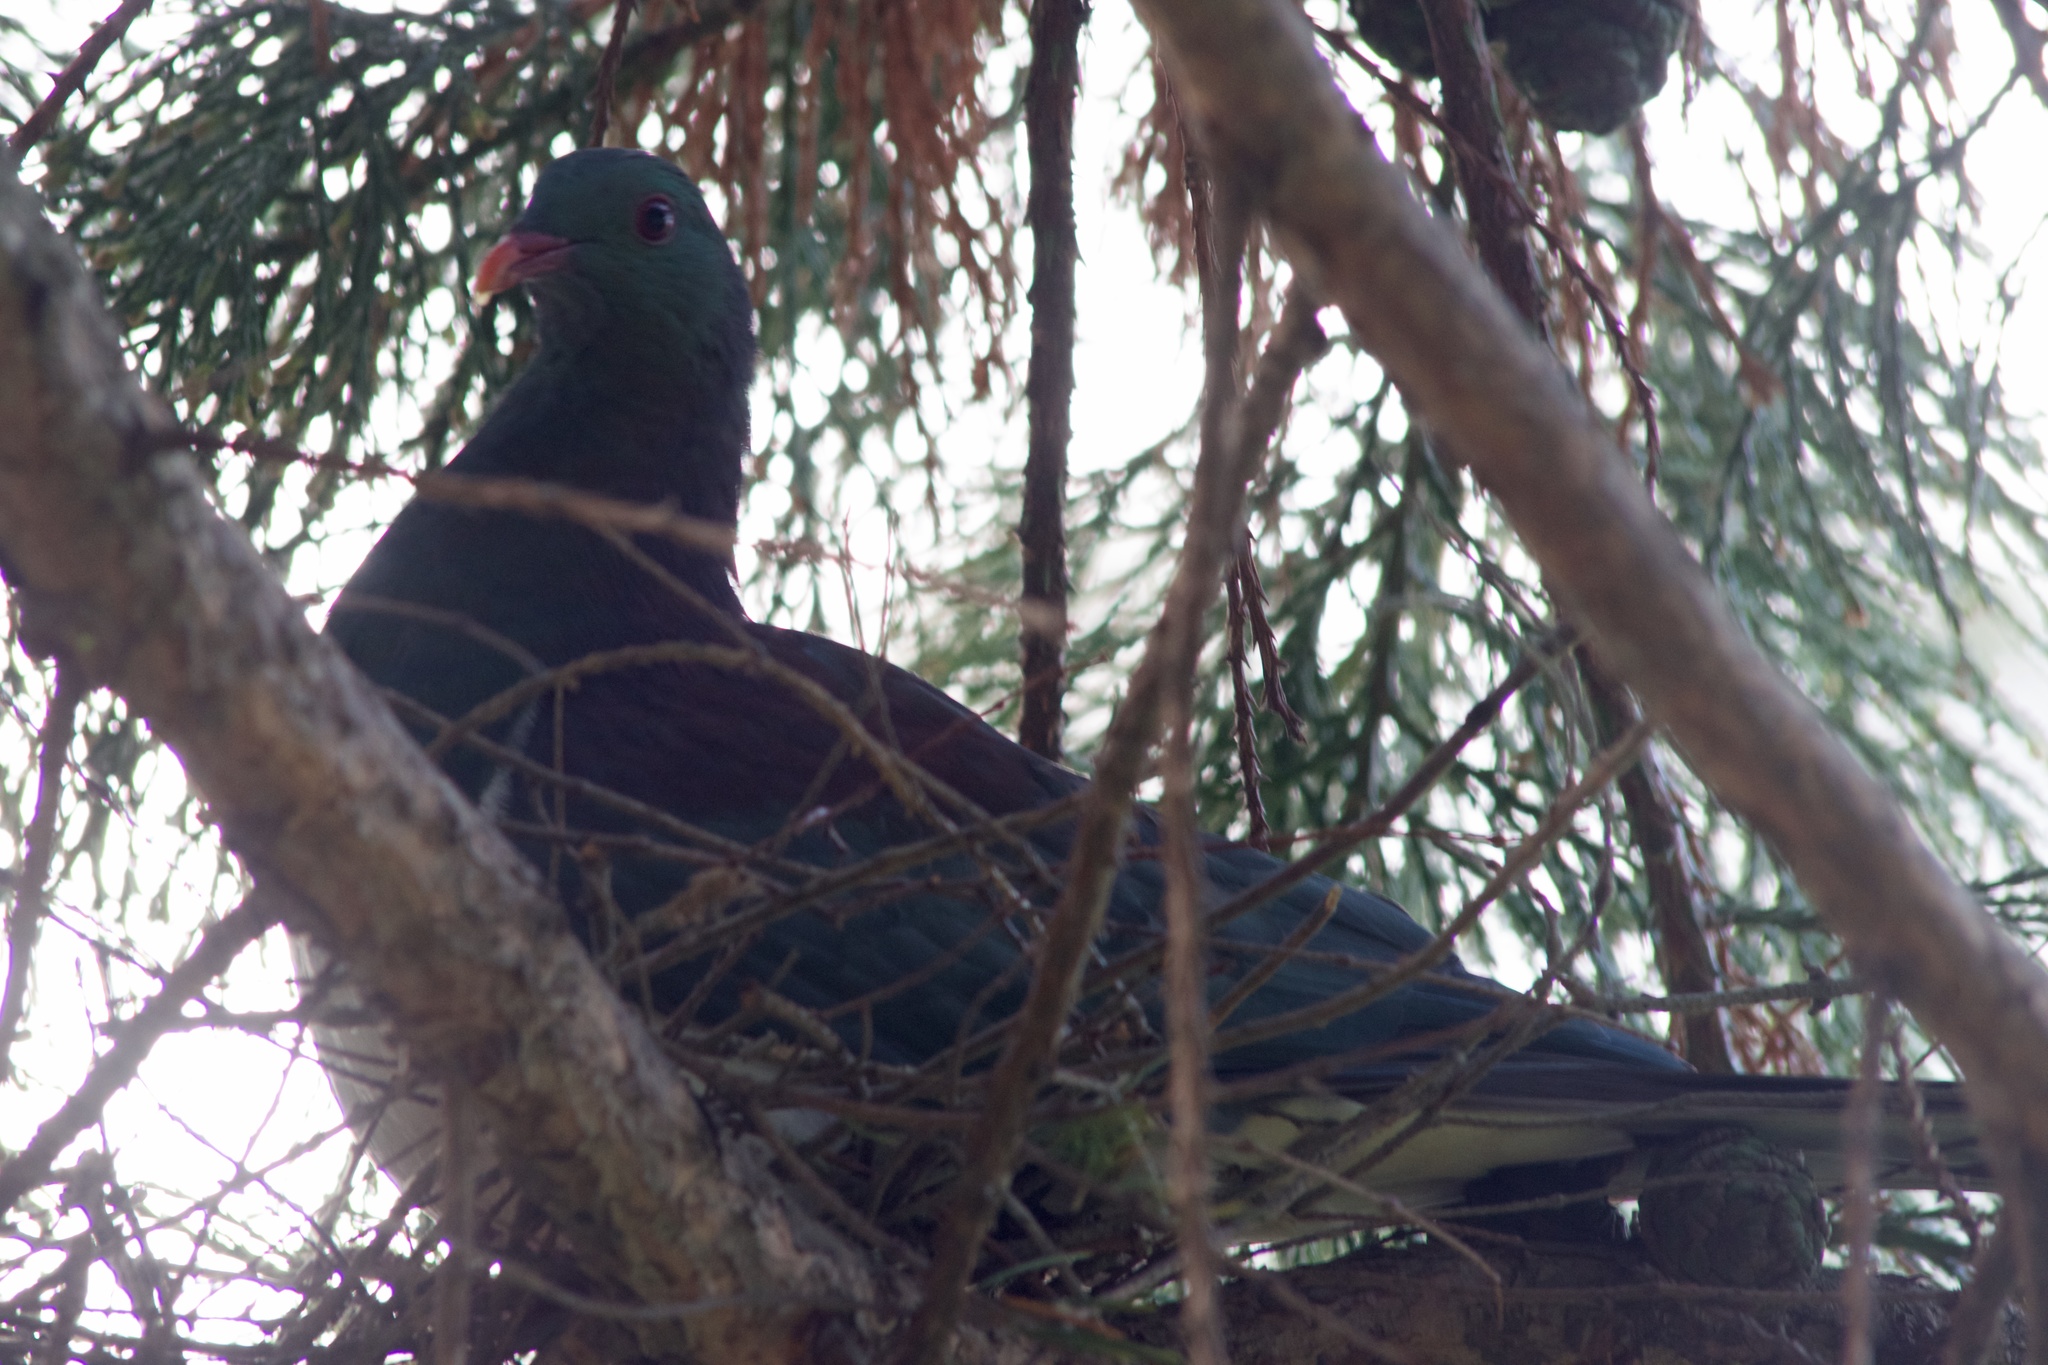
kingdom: Animalia
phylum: Chordata
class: Aves
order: Columbiformes
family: Columbidae
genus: Hemiphaga
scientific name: Hemiphaga novaeseelandiae
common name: New zealand pigeon
